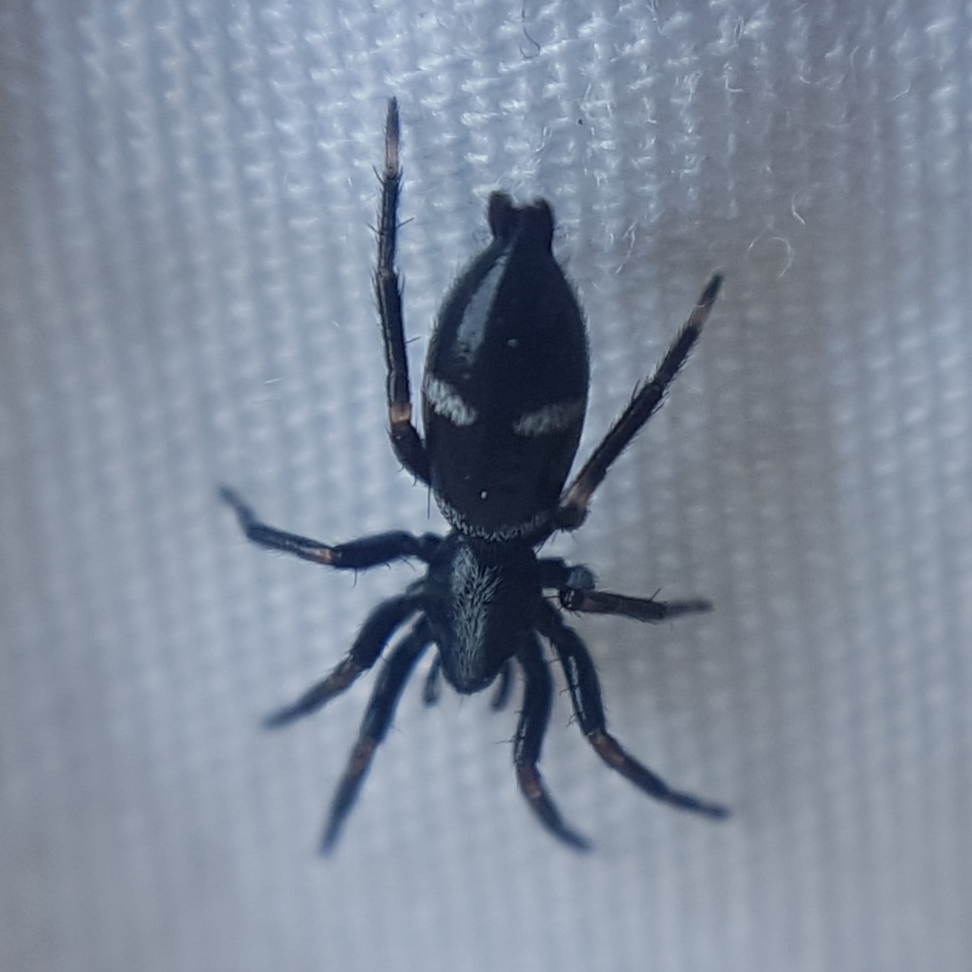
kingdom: Animalia
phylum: Arthropoda
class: Arachnida
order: Araneae
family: Gnaphosidae
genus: Aphantaulax
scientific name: Aphantaulax trifasciata
